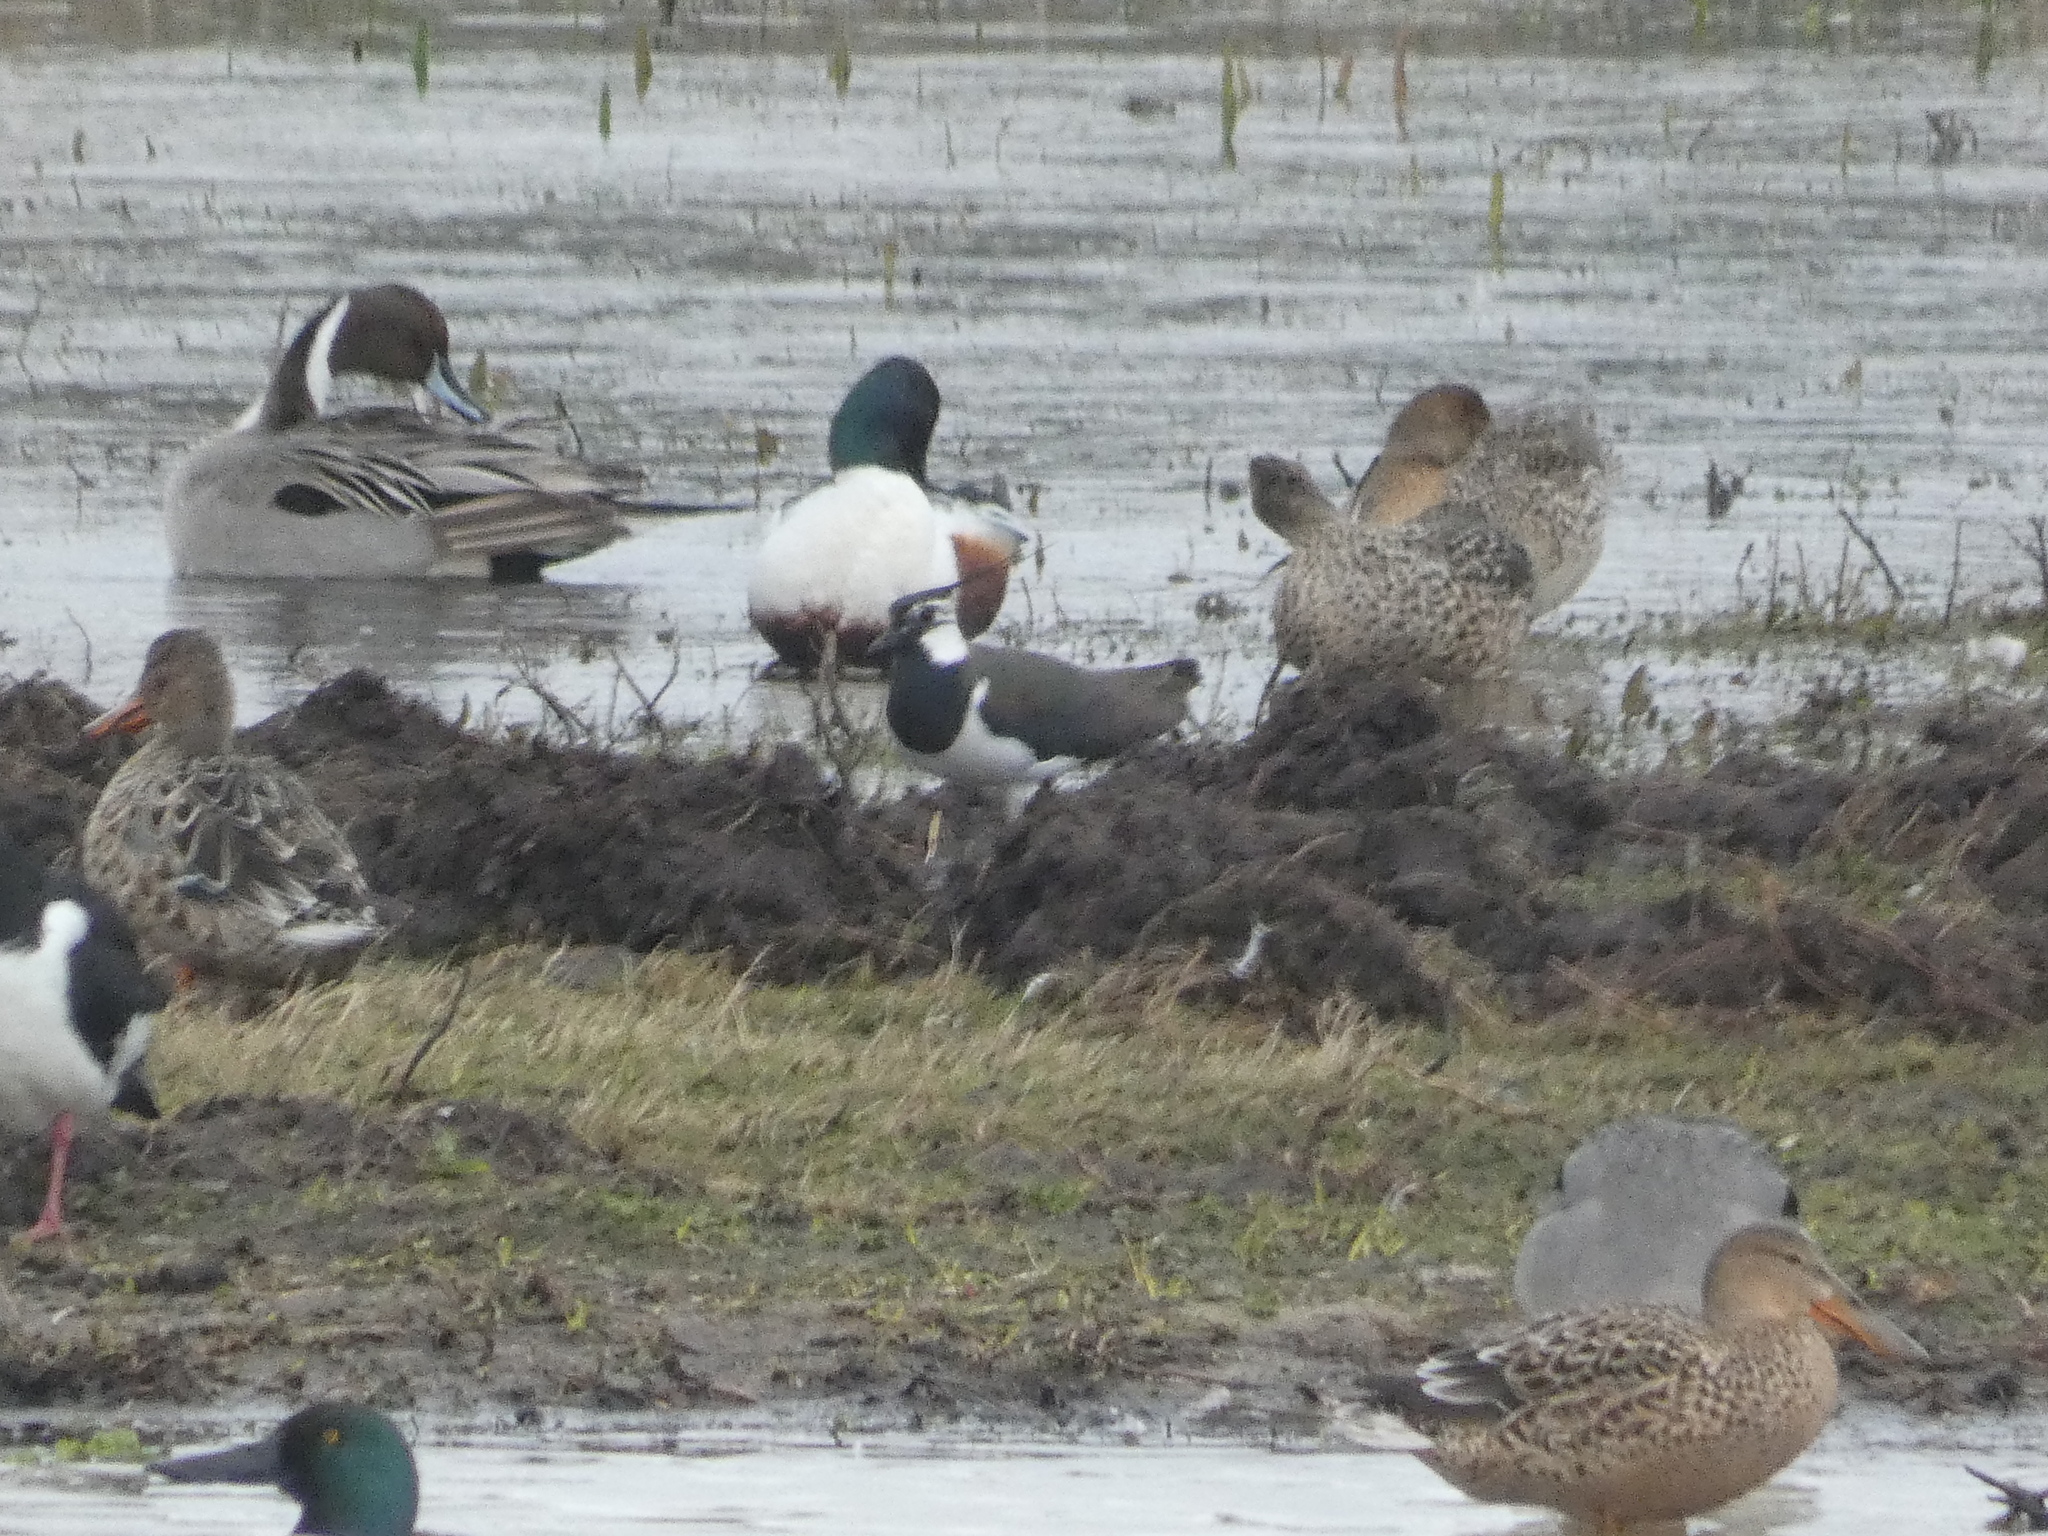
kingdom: Animalia
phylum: Chordata
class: Aves
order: Anseriformes
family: Anatidae
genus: Spatula
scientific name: Spatula clypeata
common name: Northern shoveler
